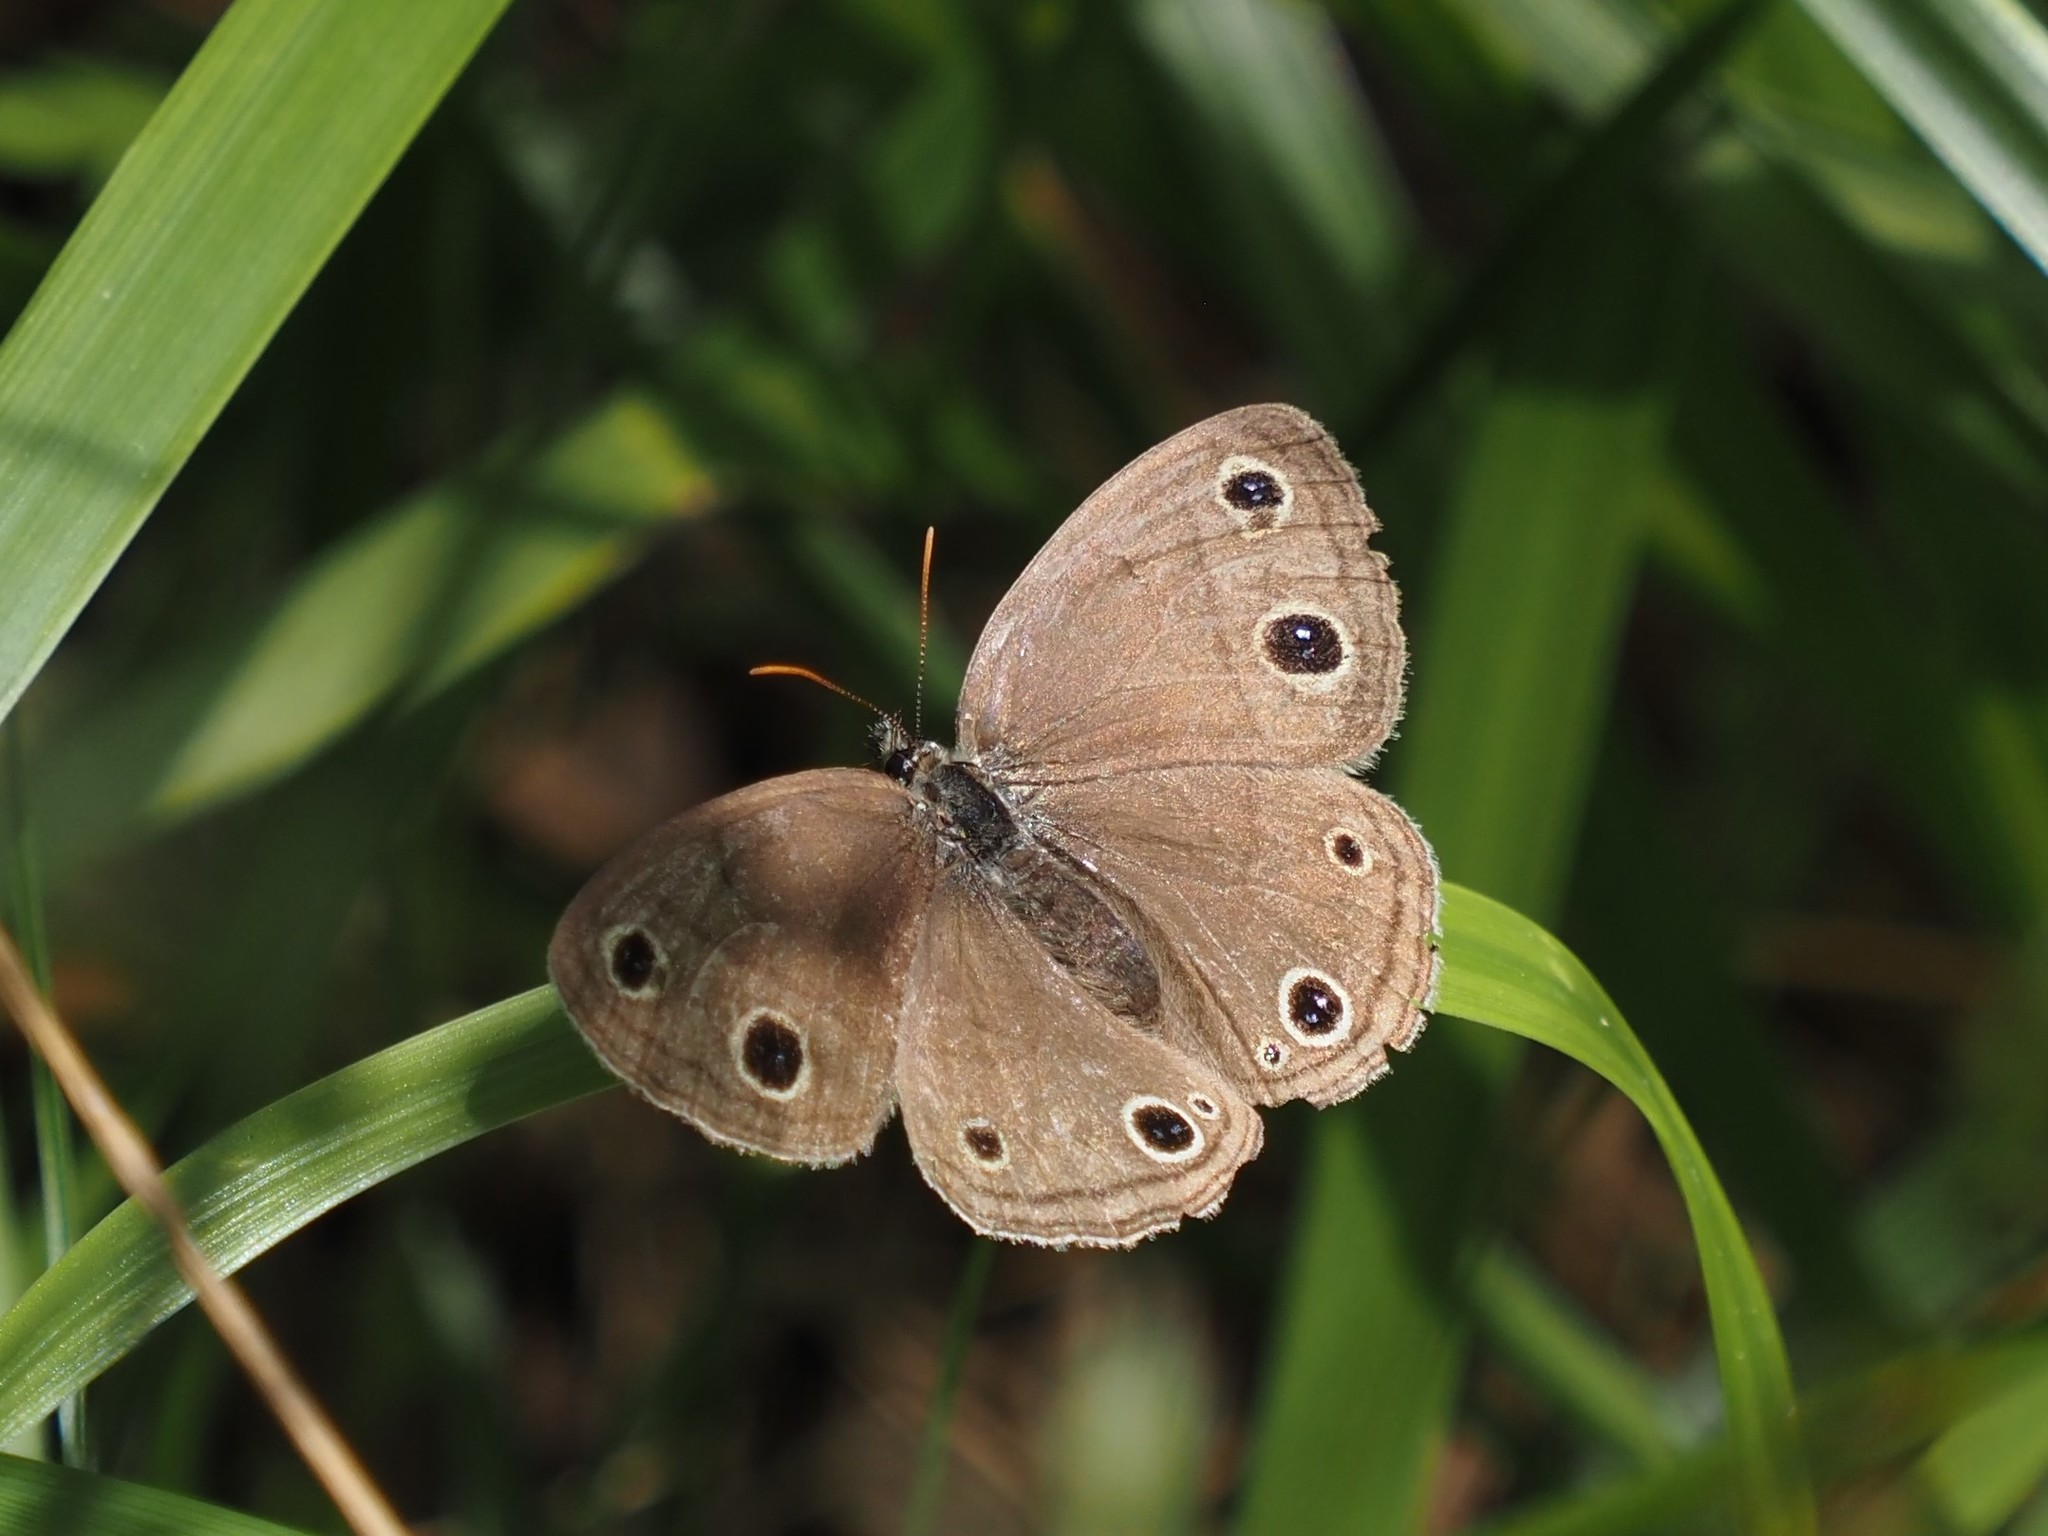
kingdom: Animalia
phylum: Arthropoda
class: Insecta
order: Lepidoptera
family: Nymphalidae
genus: Euptychia
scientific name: Euptychia cymela
